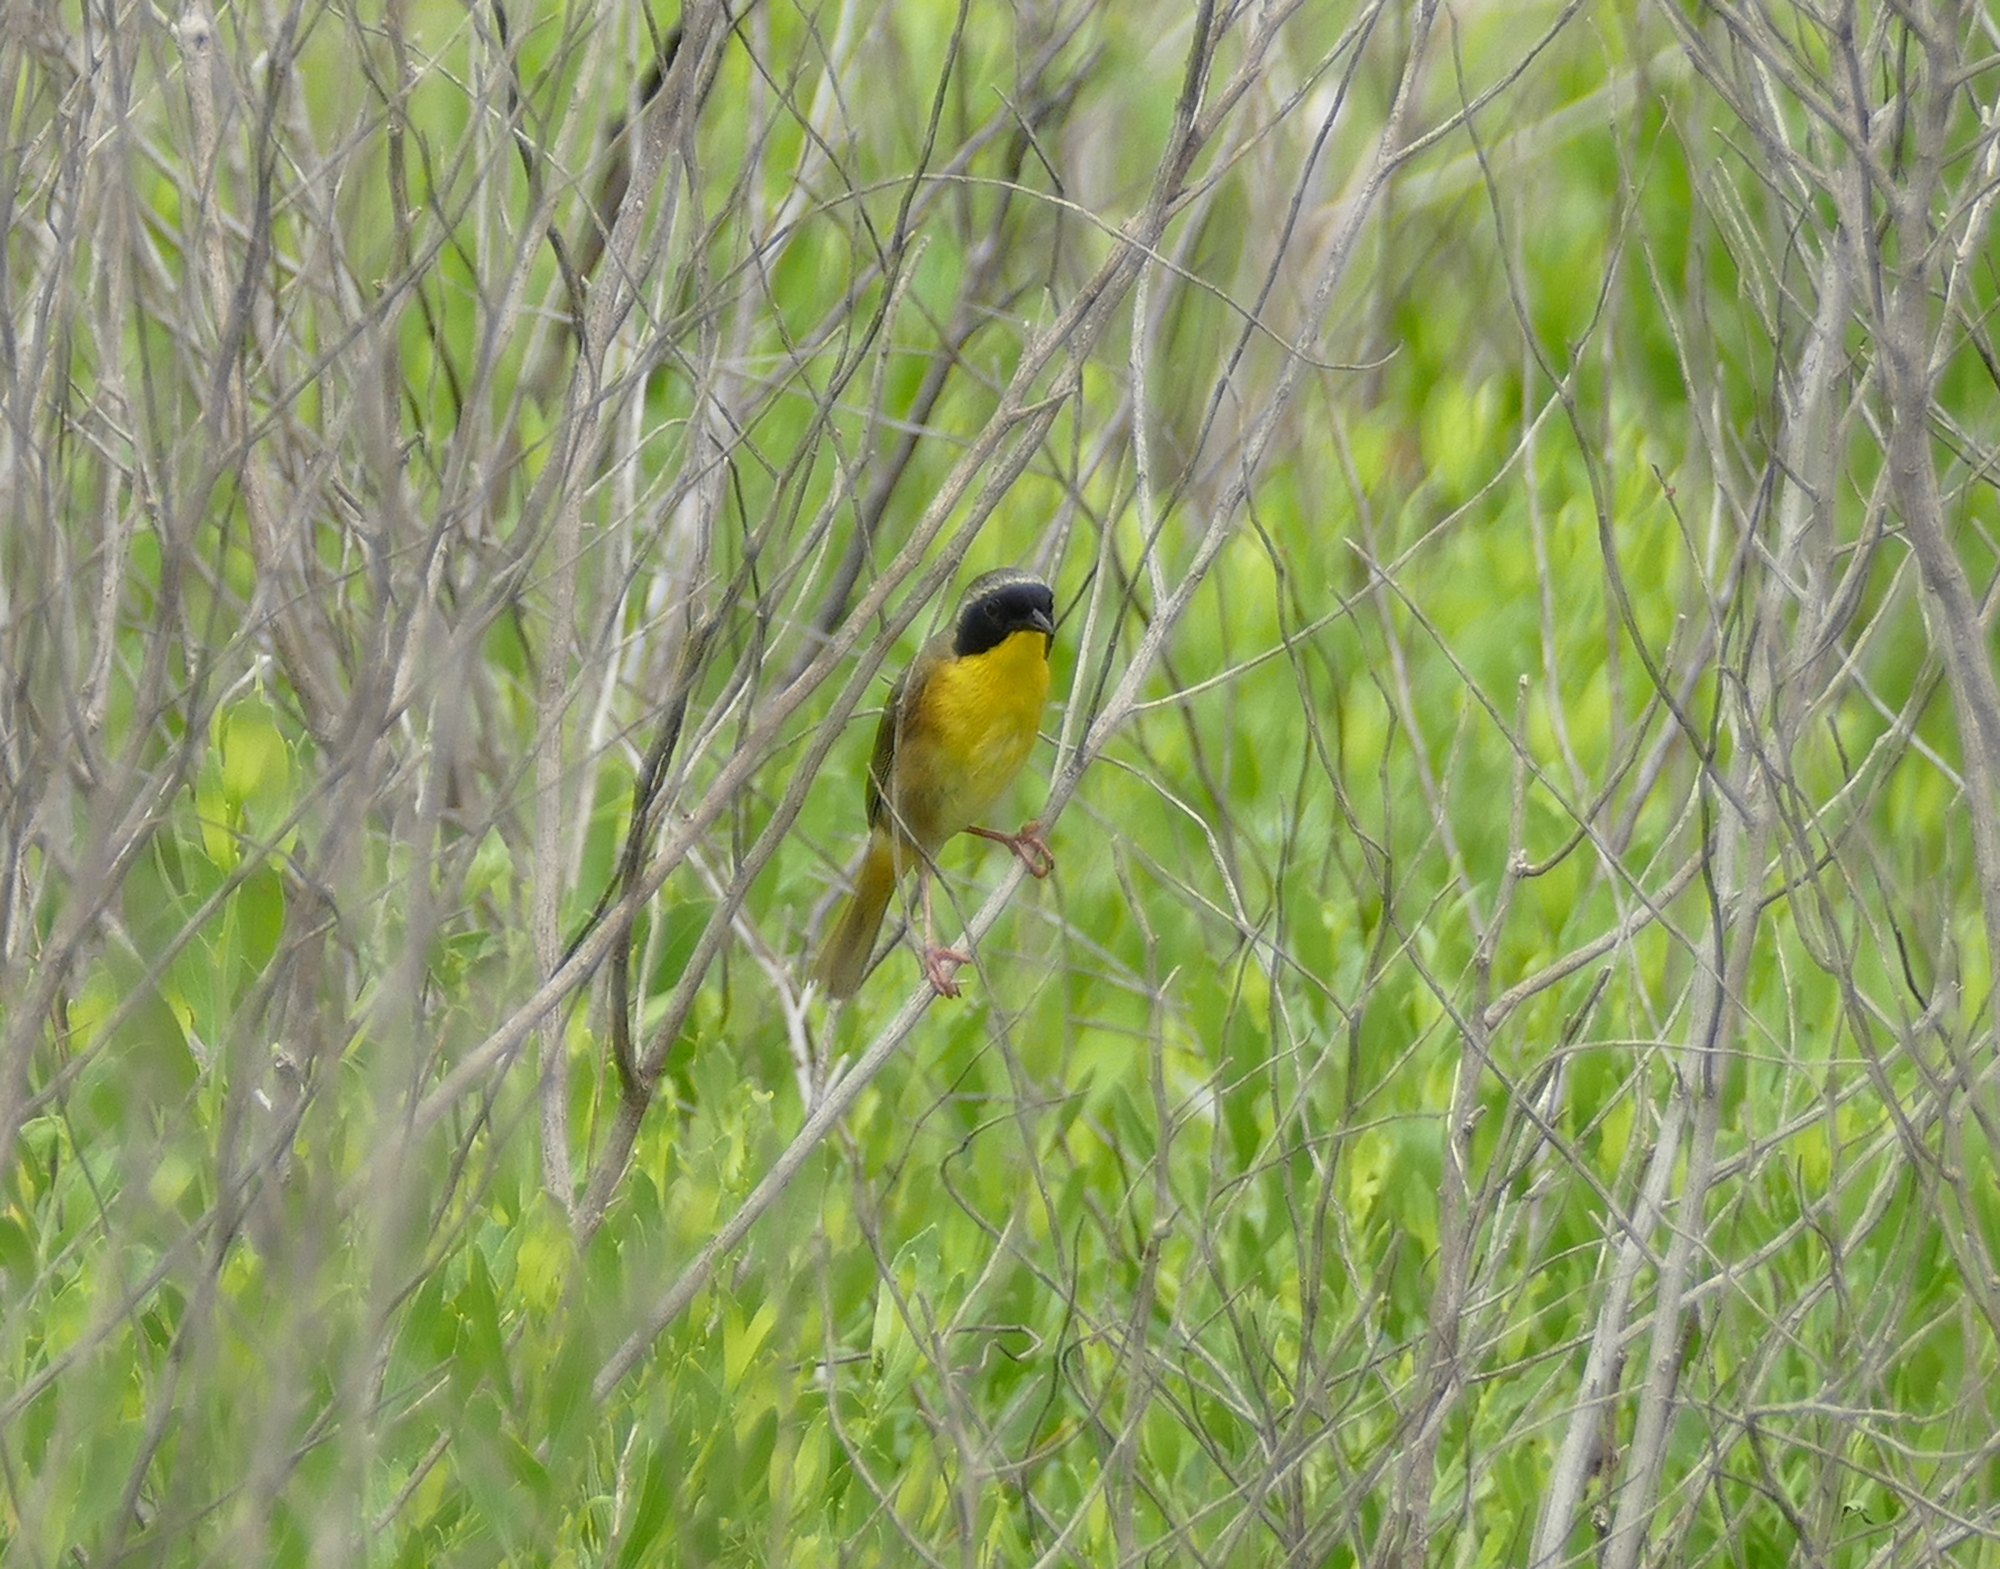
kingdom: Animalia
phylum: Chordata
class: Aves
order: Passeriformes
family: Parulidae
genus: Geothlypis
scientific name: Geothlypis trichas
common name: Common yellowthroat
